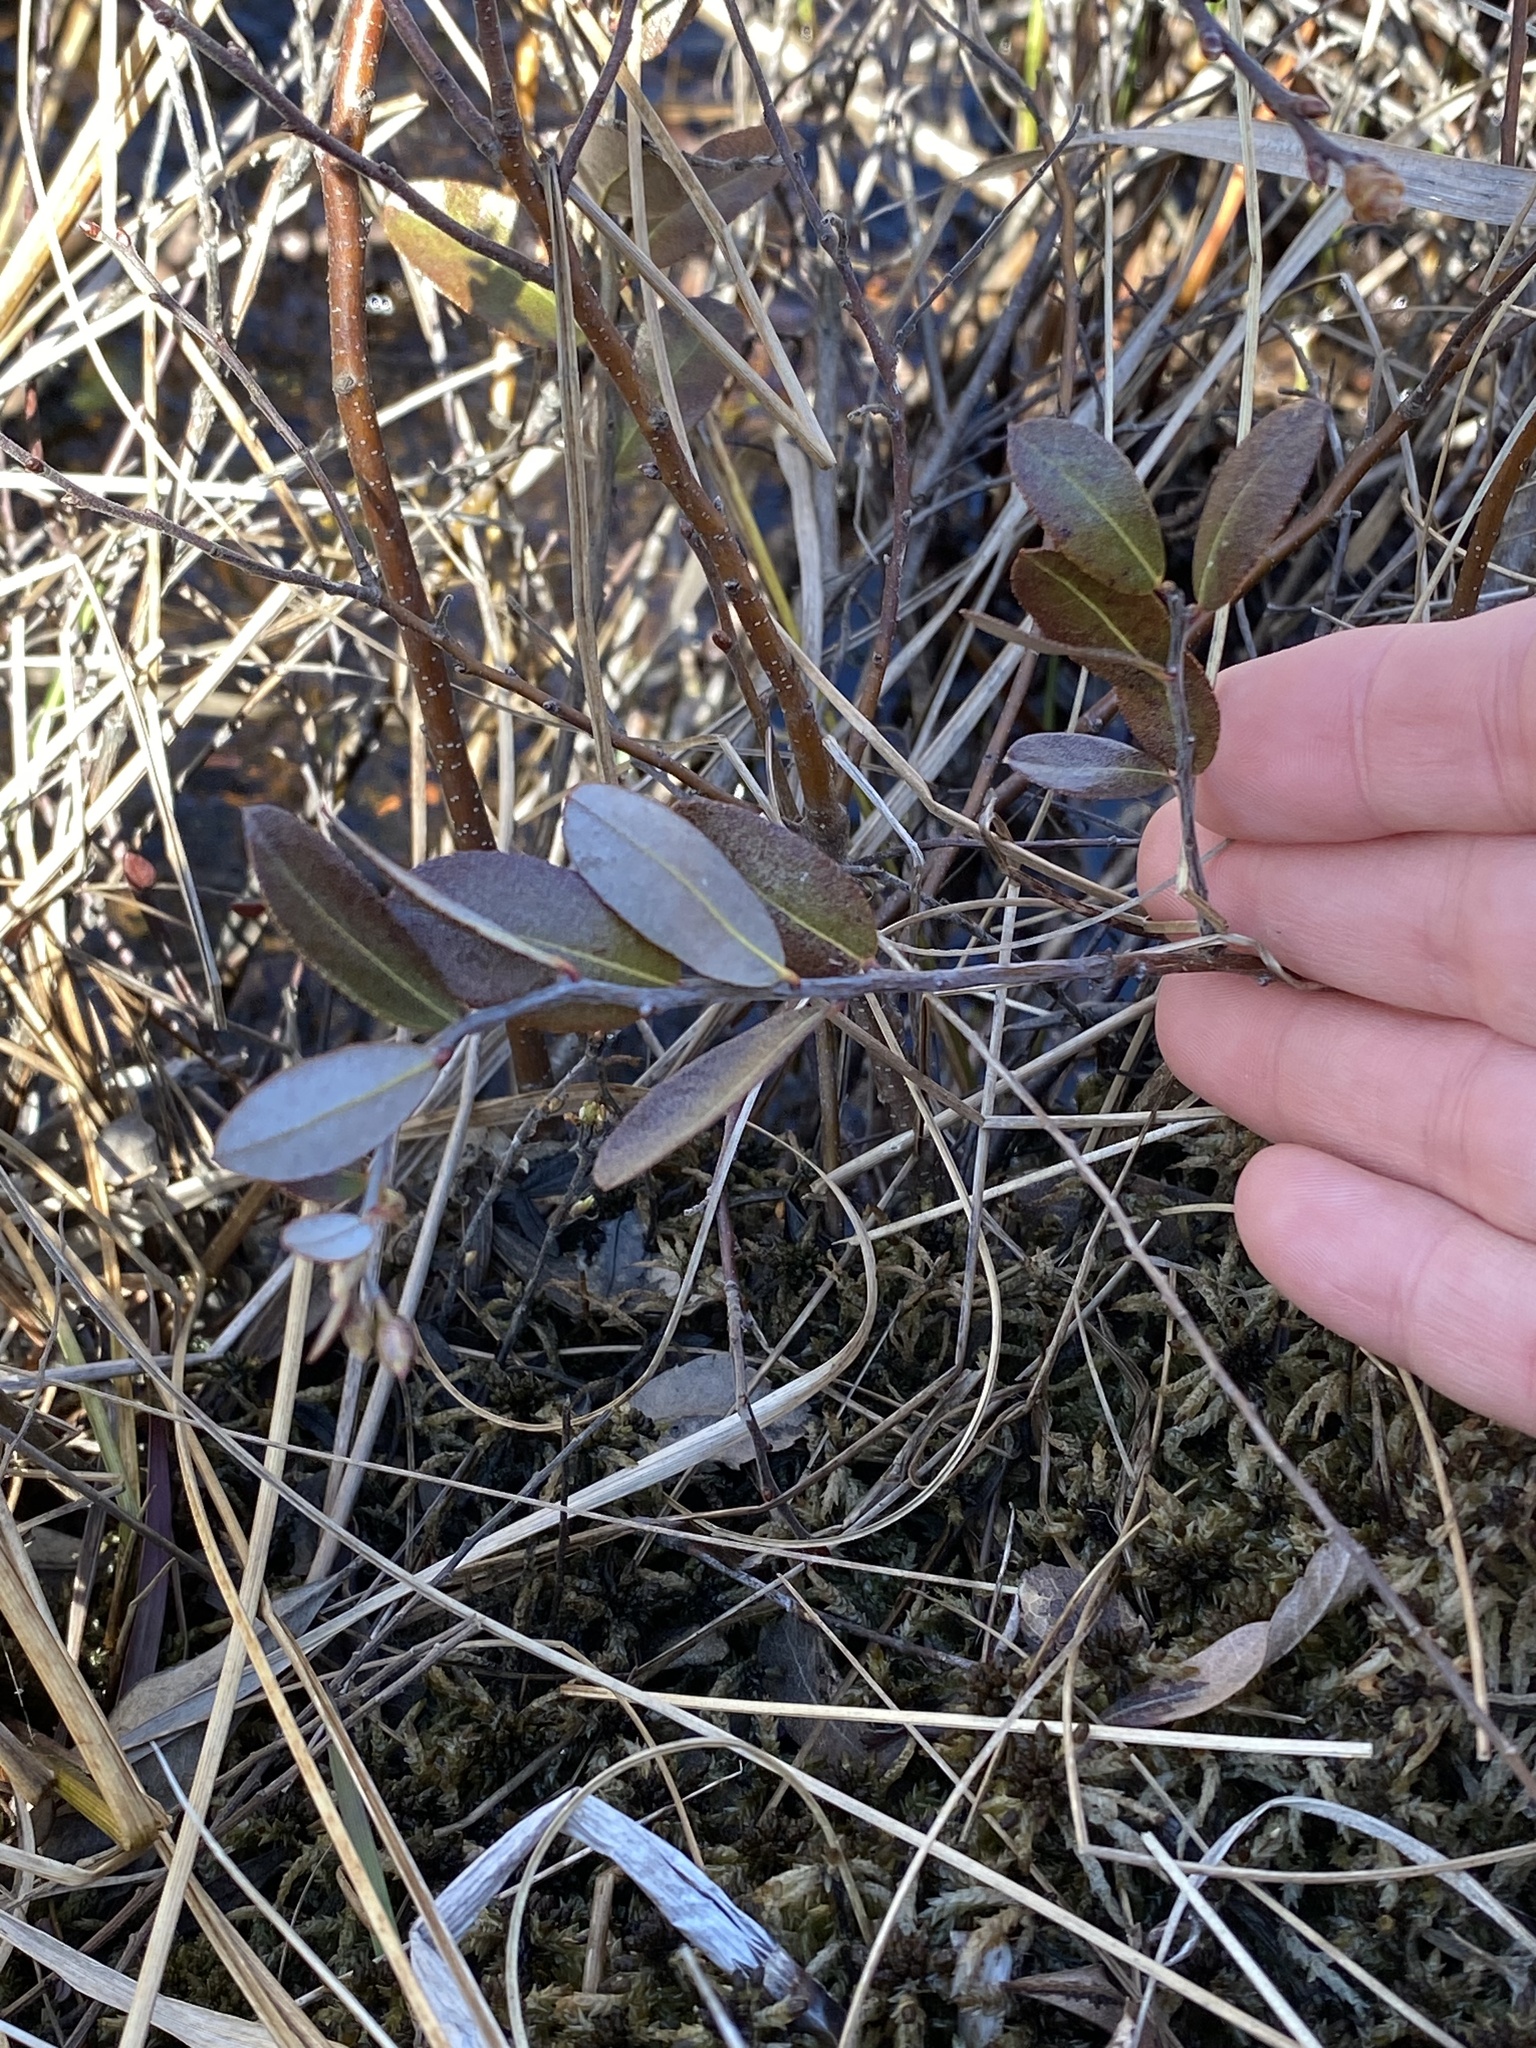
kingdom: Plantae
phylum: Tracheophyta
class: Magnoliopsida
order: Ericales
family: Ericaceae
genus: Chamaedaphne
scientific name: Chamaedaphne calyculata
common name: Leatherleaf
